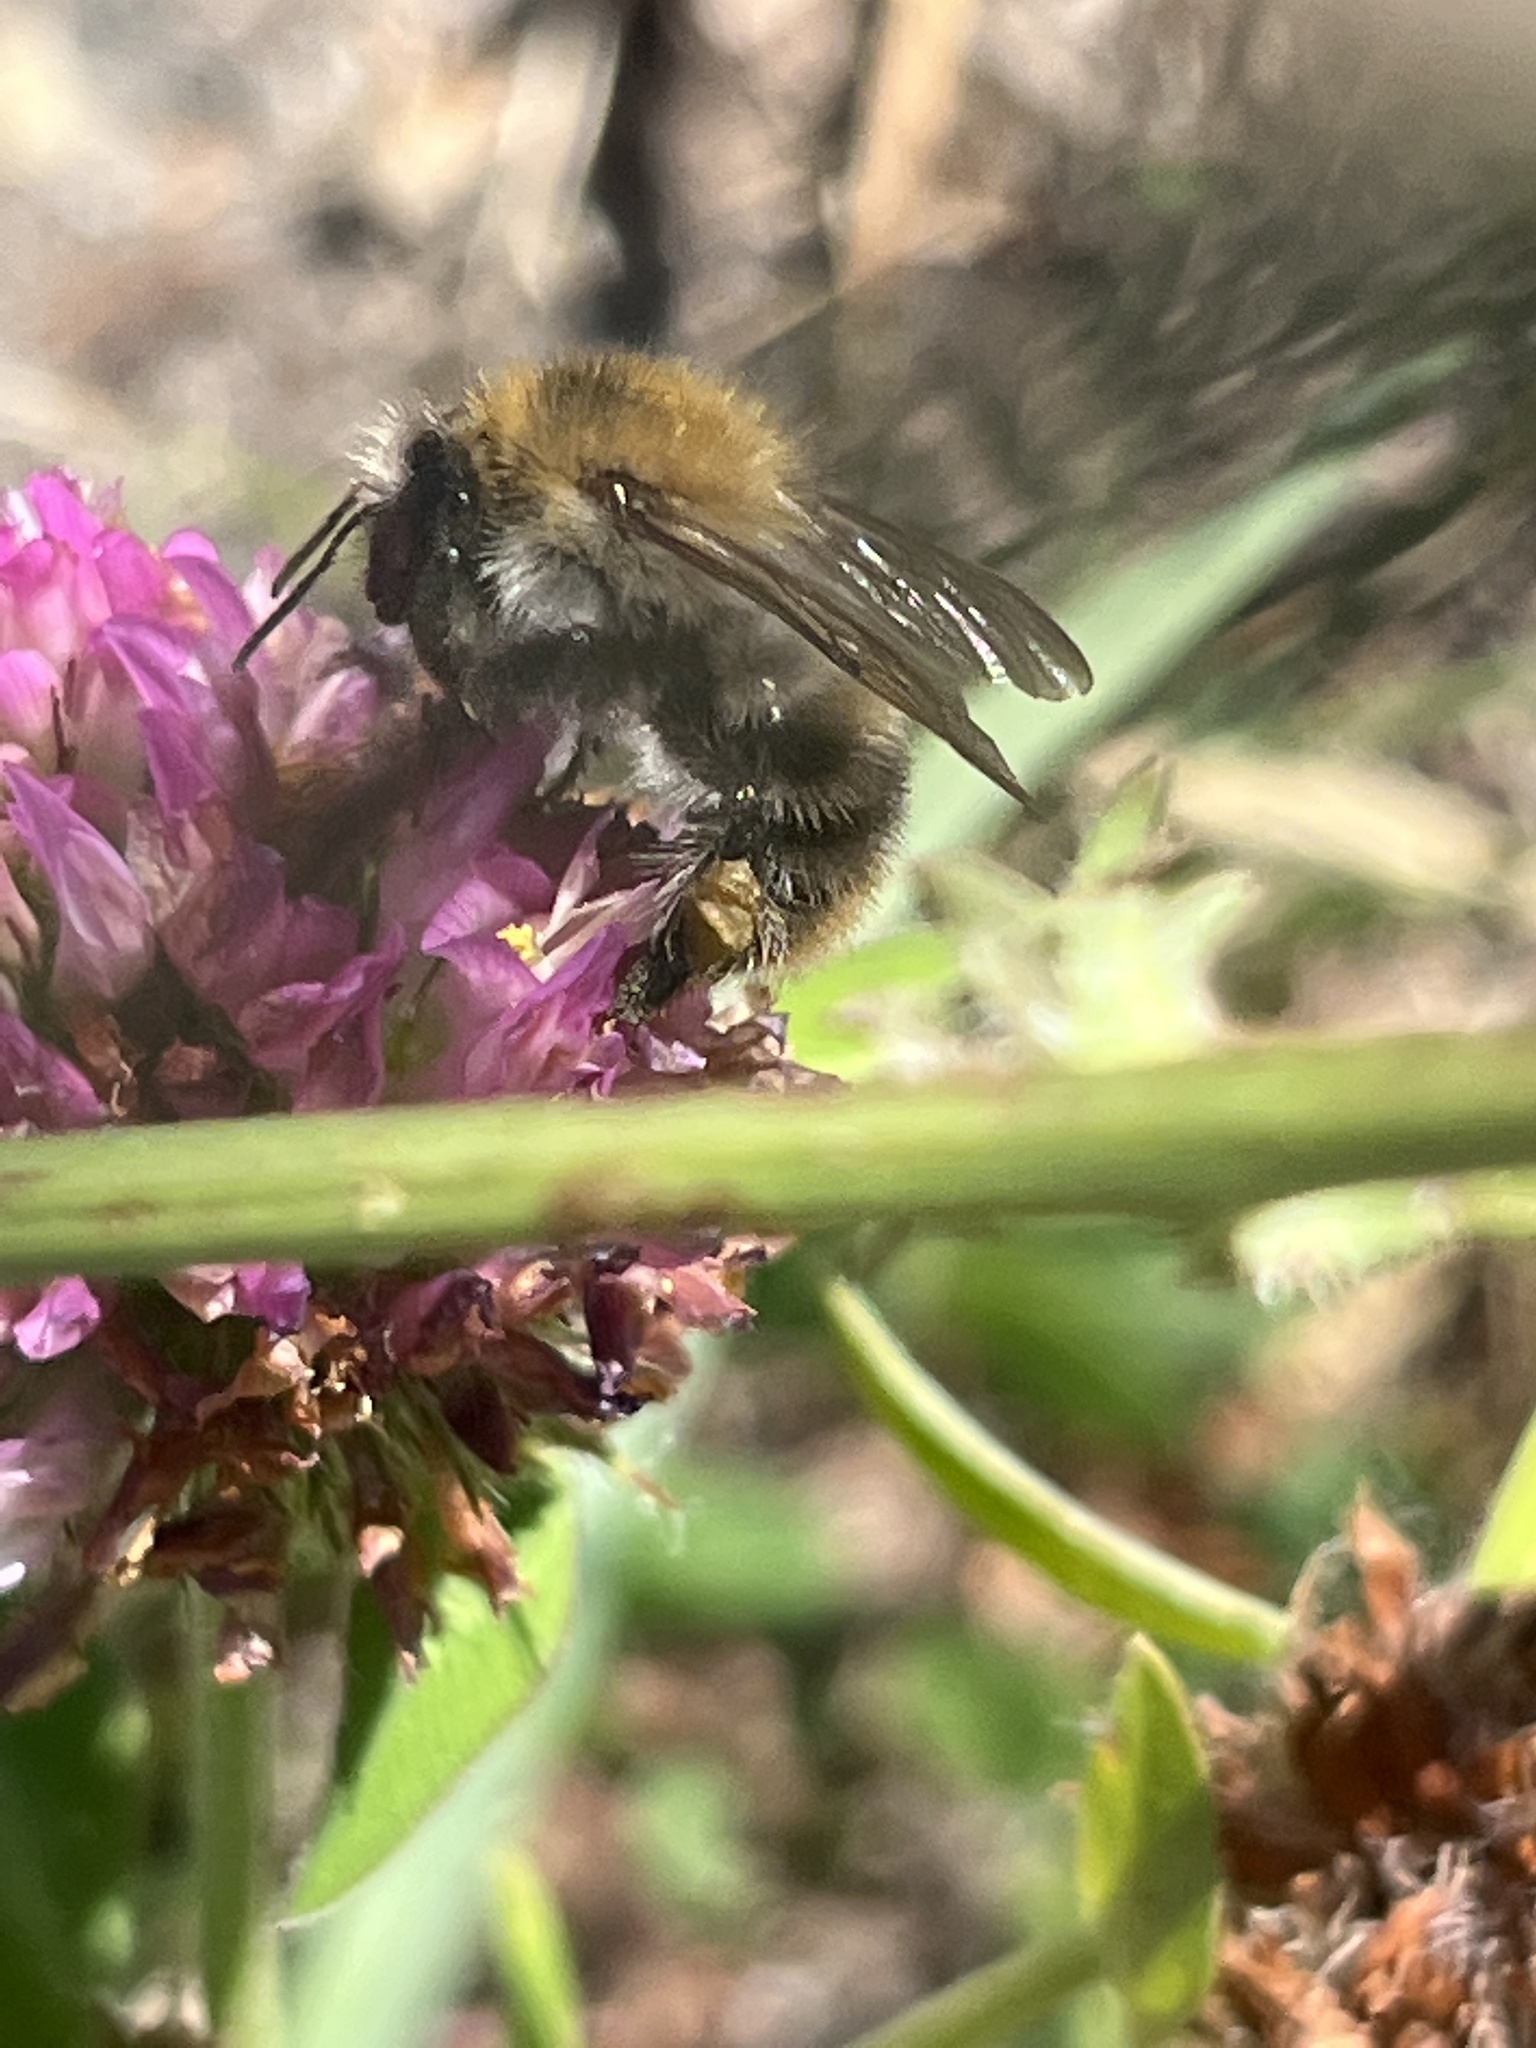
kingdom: Animalia
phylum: Arthropoda
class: Insecta
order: Hymenoptera
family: Apidae
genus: Bombus
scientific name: Bombus pascuorum
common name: Common carder bee
